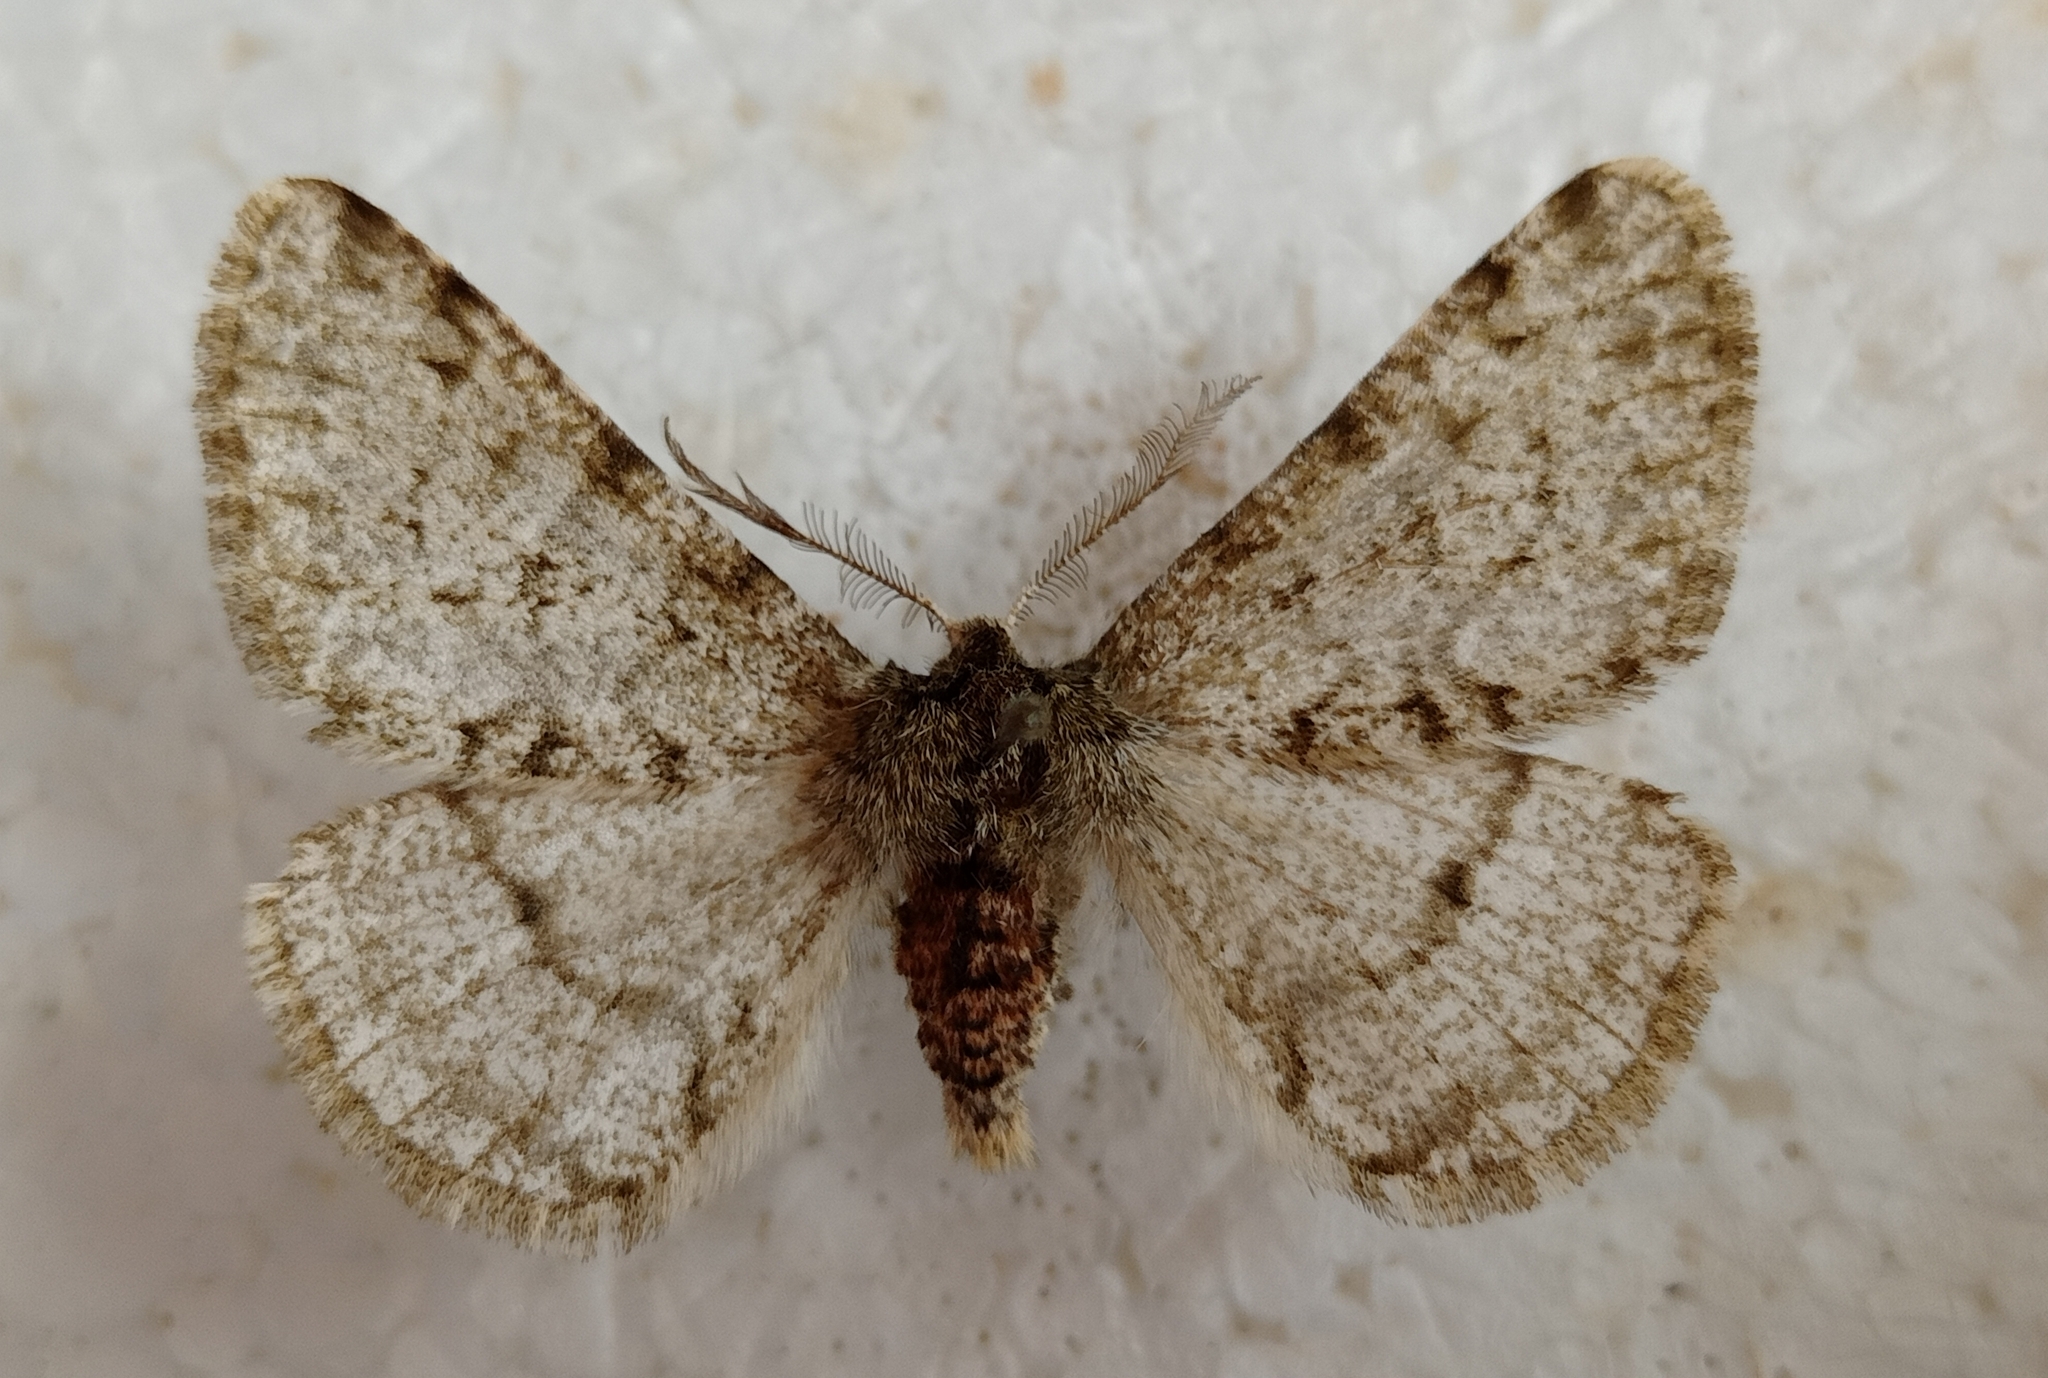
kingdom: Animalia
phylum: Arthropoda
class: Insecta
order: Lepidoptera
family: Geometridae
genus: Phigalia
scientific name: Phigalia pilosaria
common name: Pale brindled beauty
